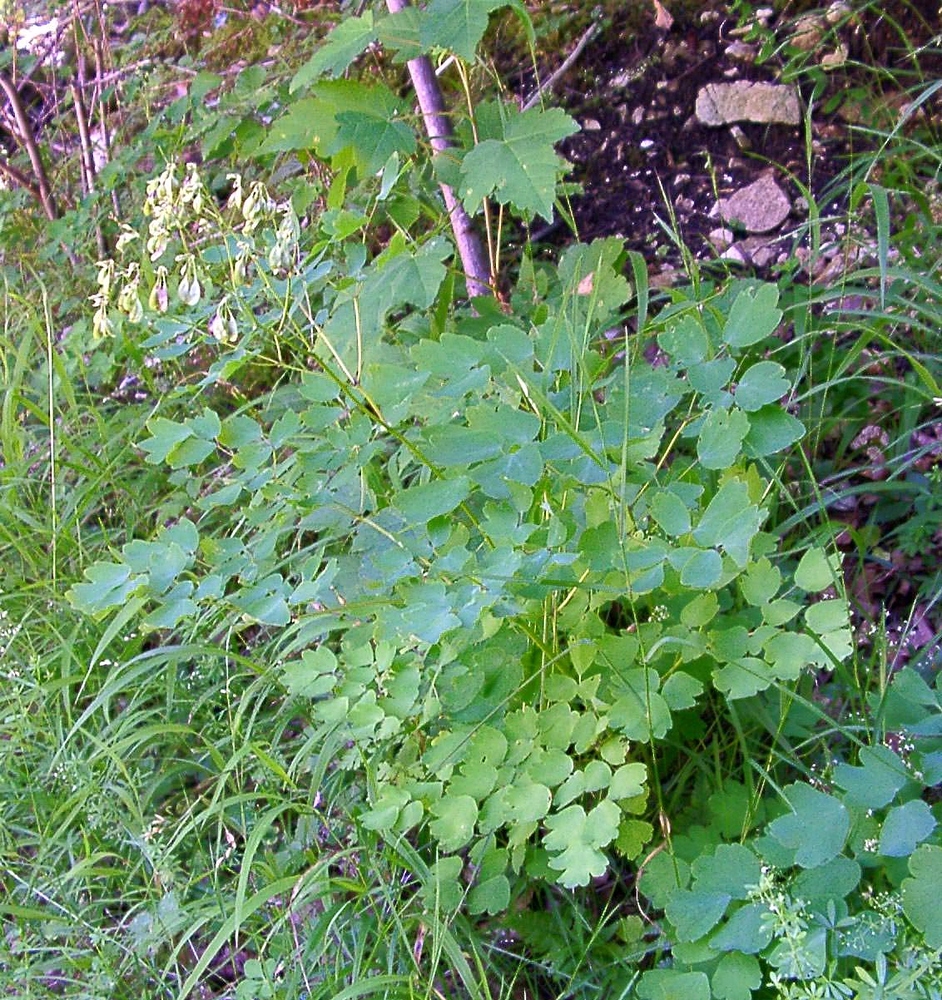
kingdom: Plantae
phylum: Tracheophyta
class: Magnoliopsida
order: Ranunculales
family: Ranunculaceae
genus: Thalictrum
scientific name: Thalictrum aquilegiifolium
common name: French meadow-rue
